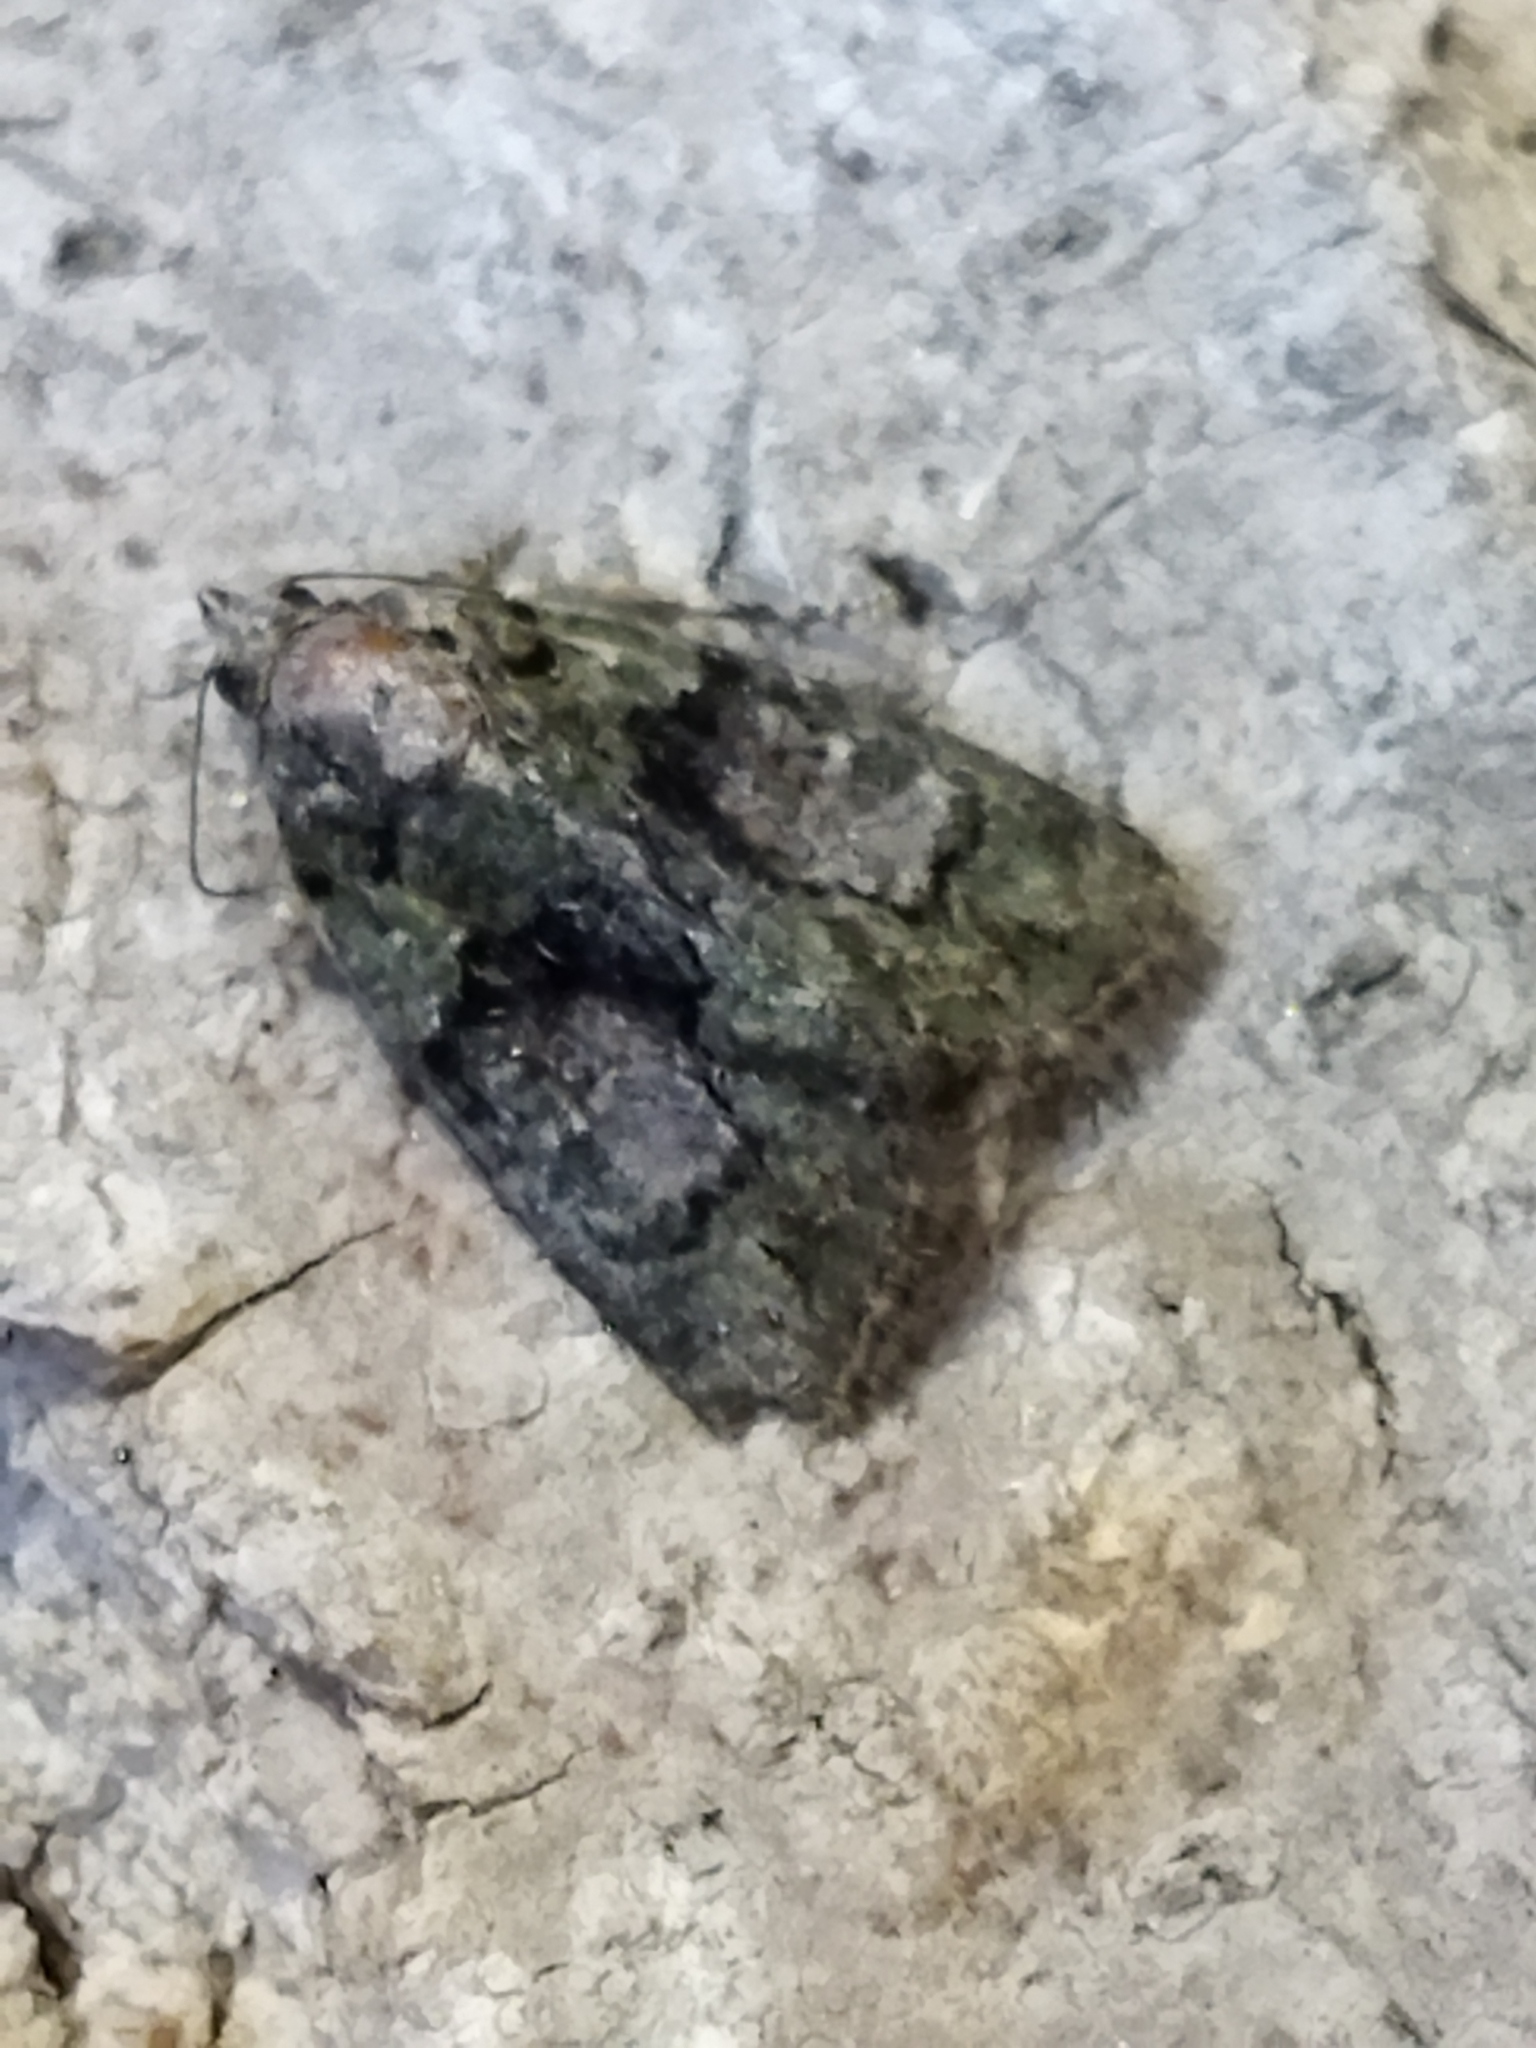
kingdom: Animalia
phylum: Arthropoda
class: Insecta
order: Lepidoptera
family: Noctuidae
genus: Cryphia
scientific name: Cryphia
